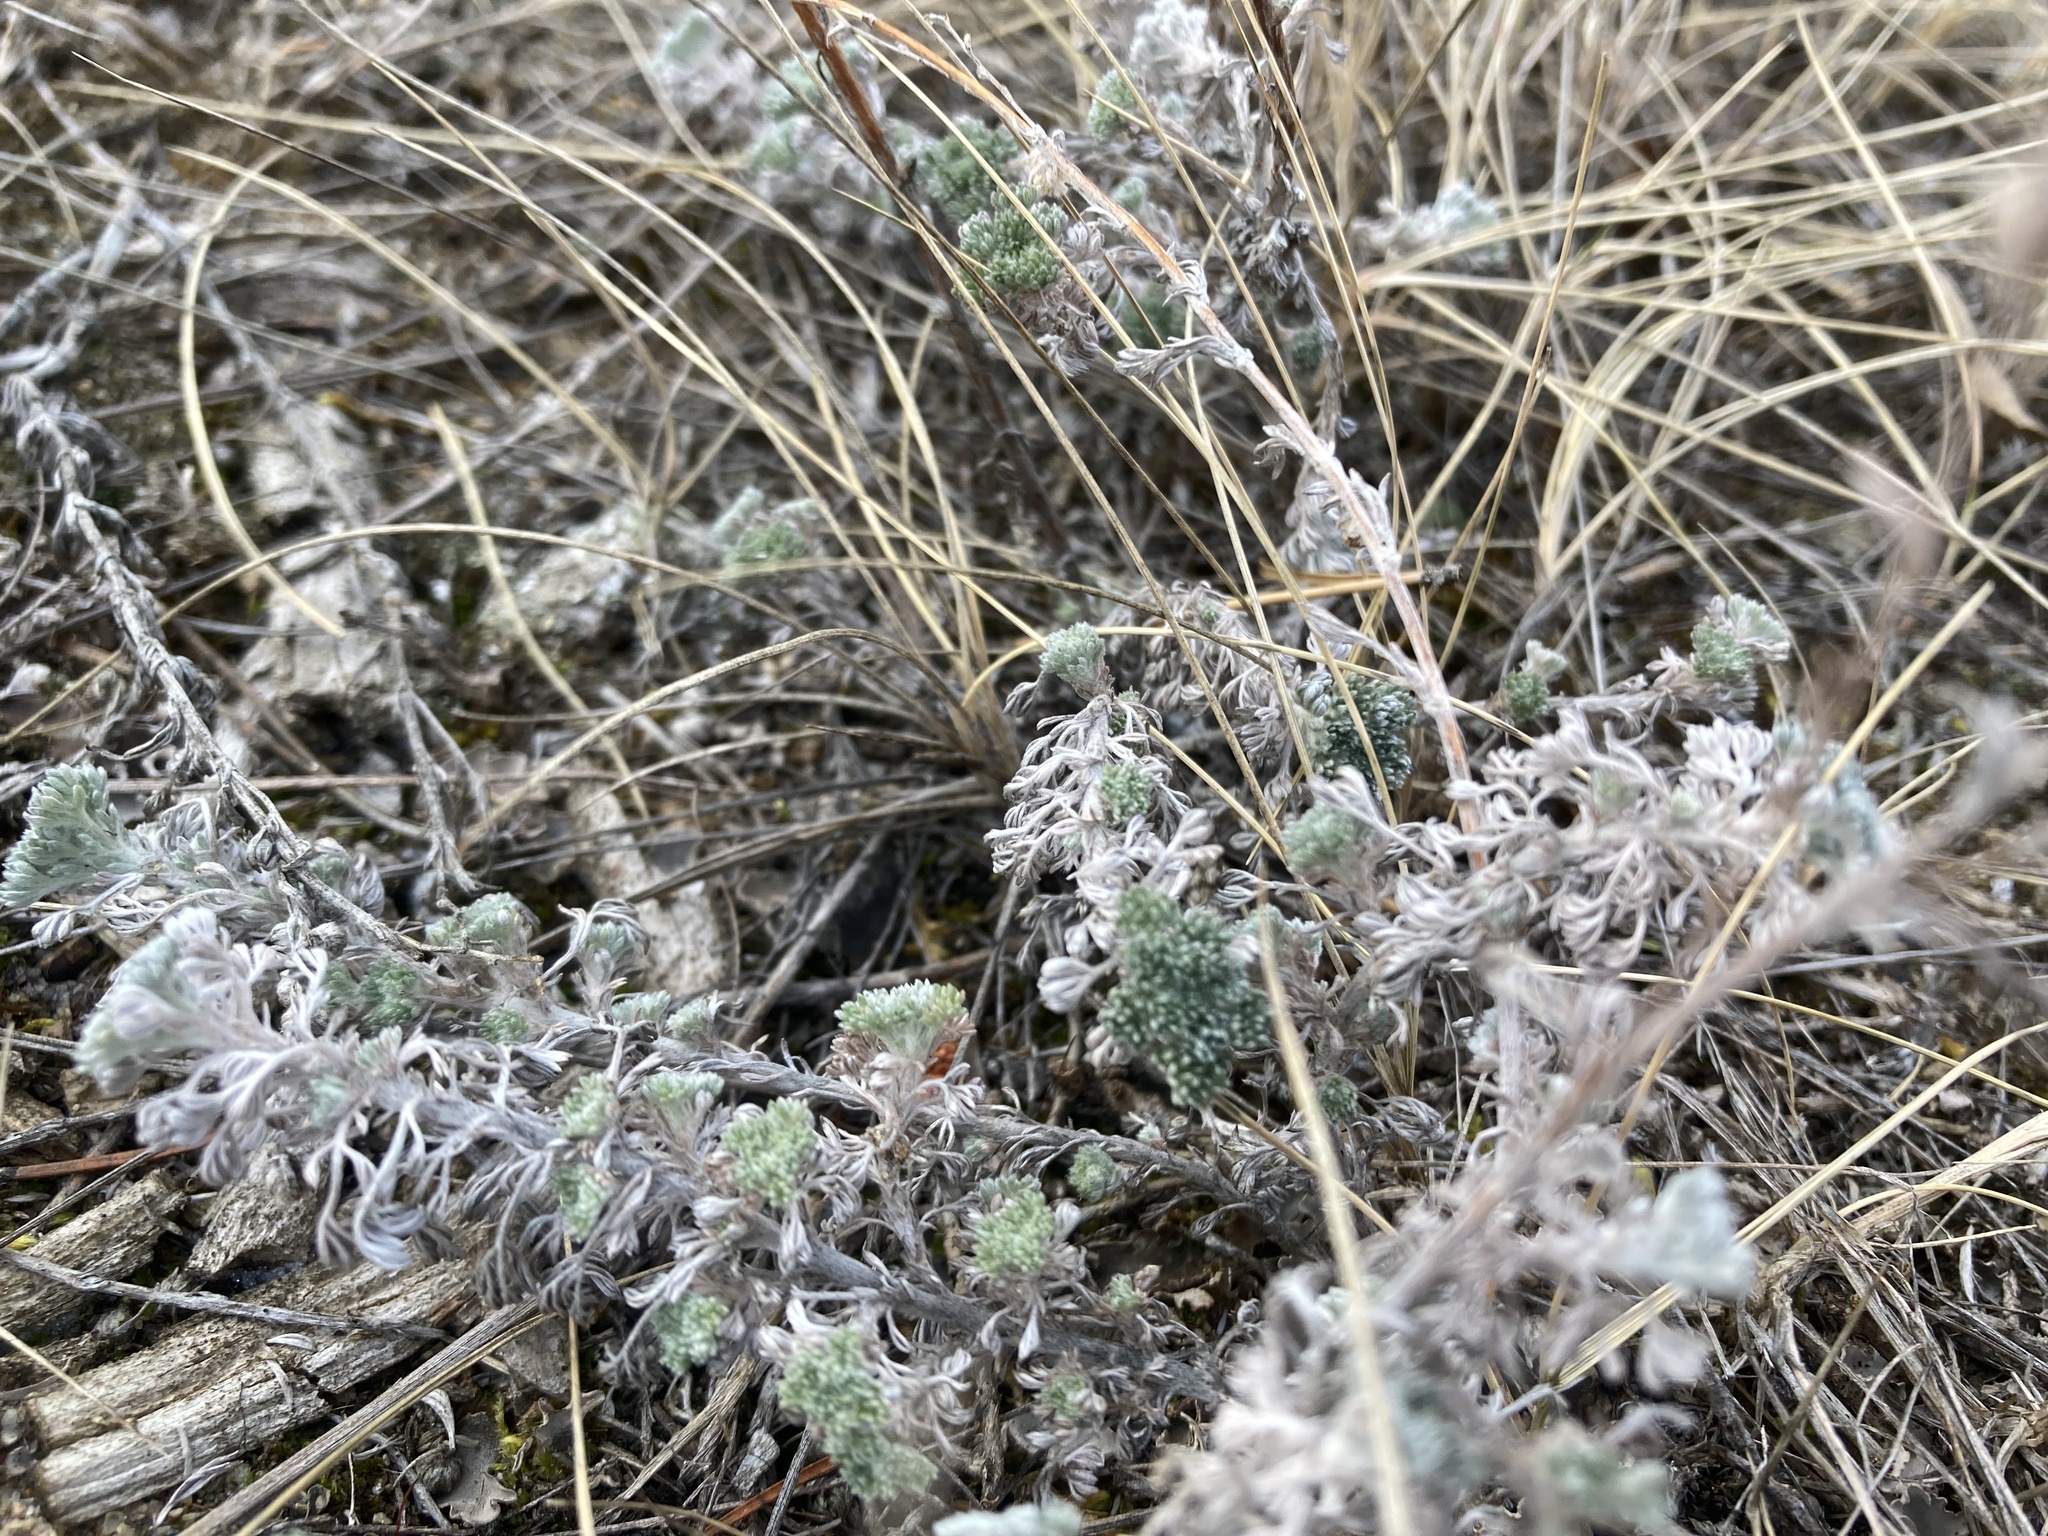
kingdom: Plantae
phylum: Tracheophyta
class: Magnoliopsida
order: Asterales
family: Asteraceae
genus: Artemisia
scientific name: Artemisia frigida
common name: Prairie sagewort
